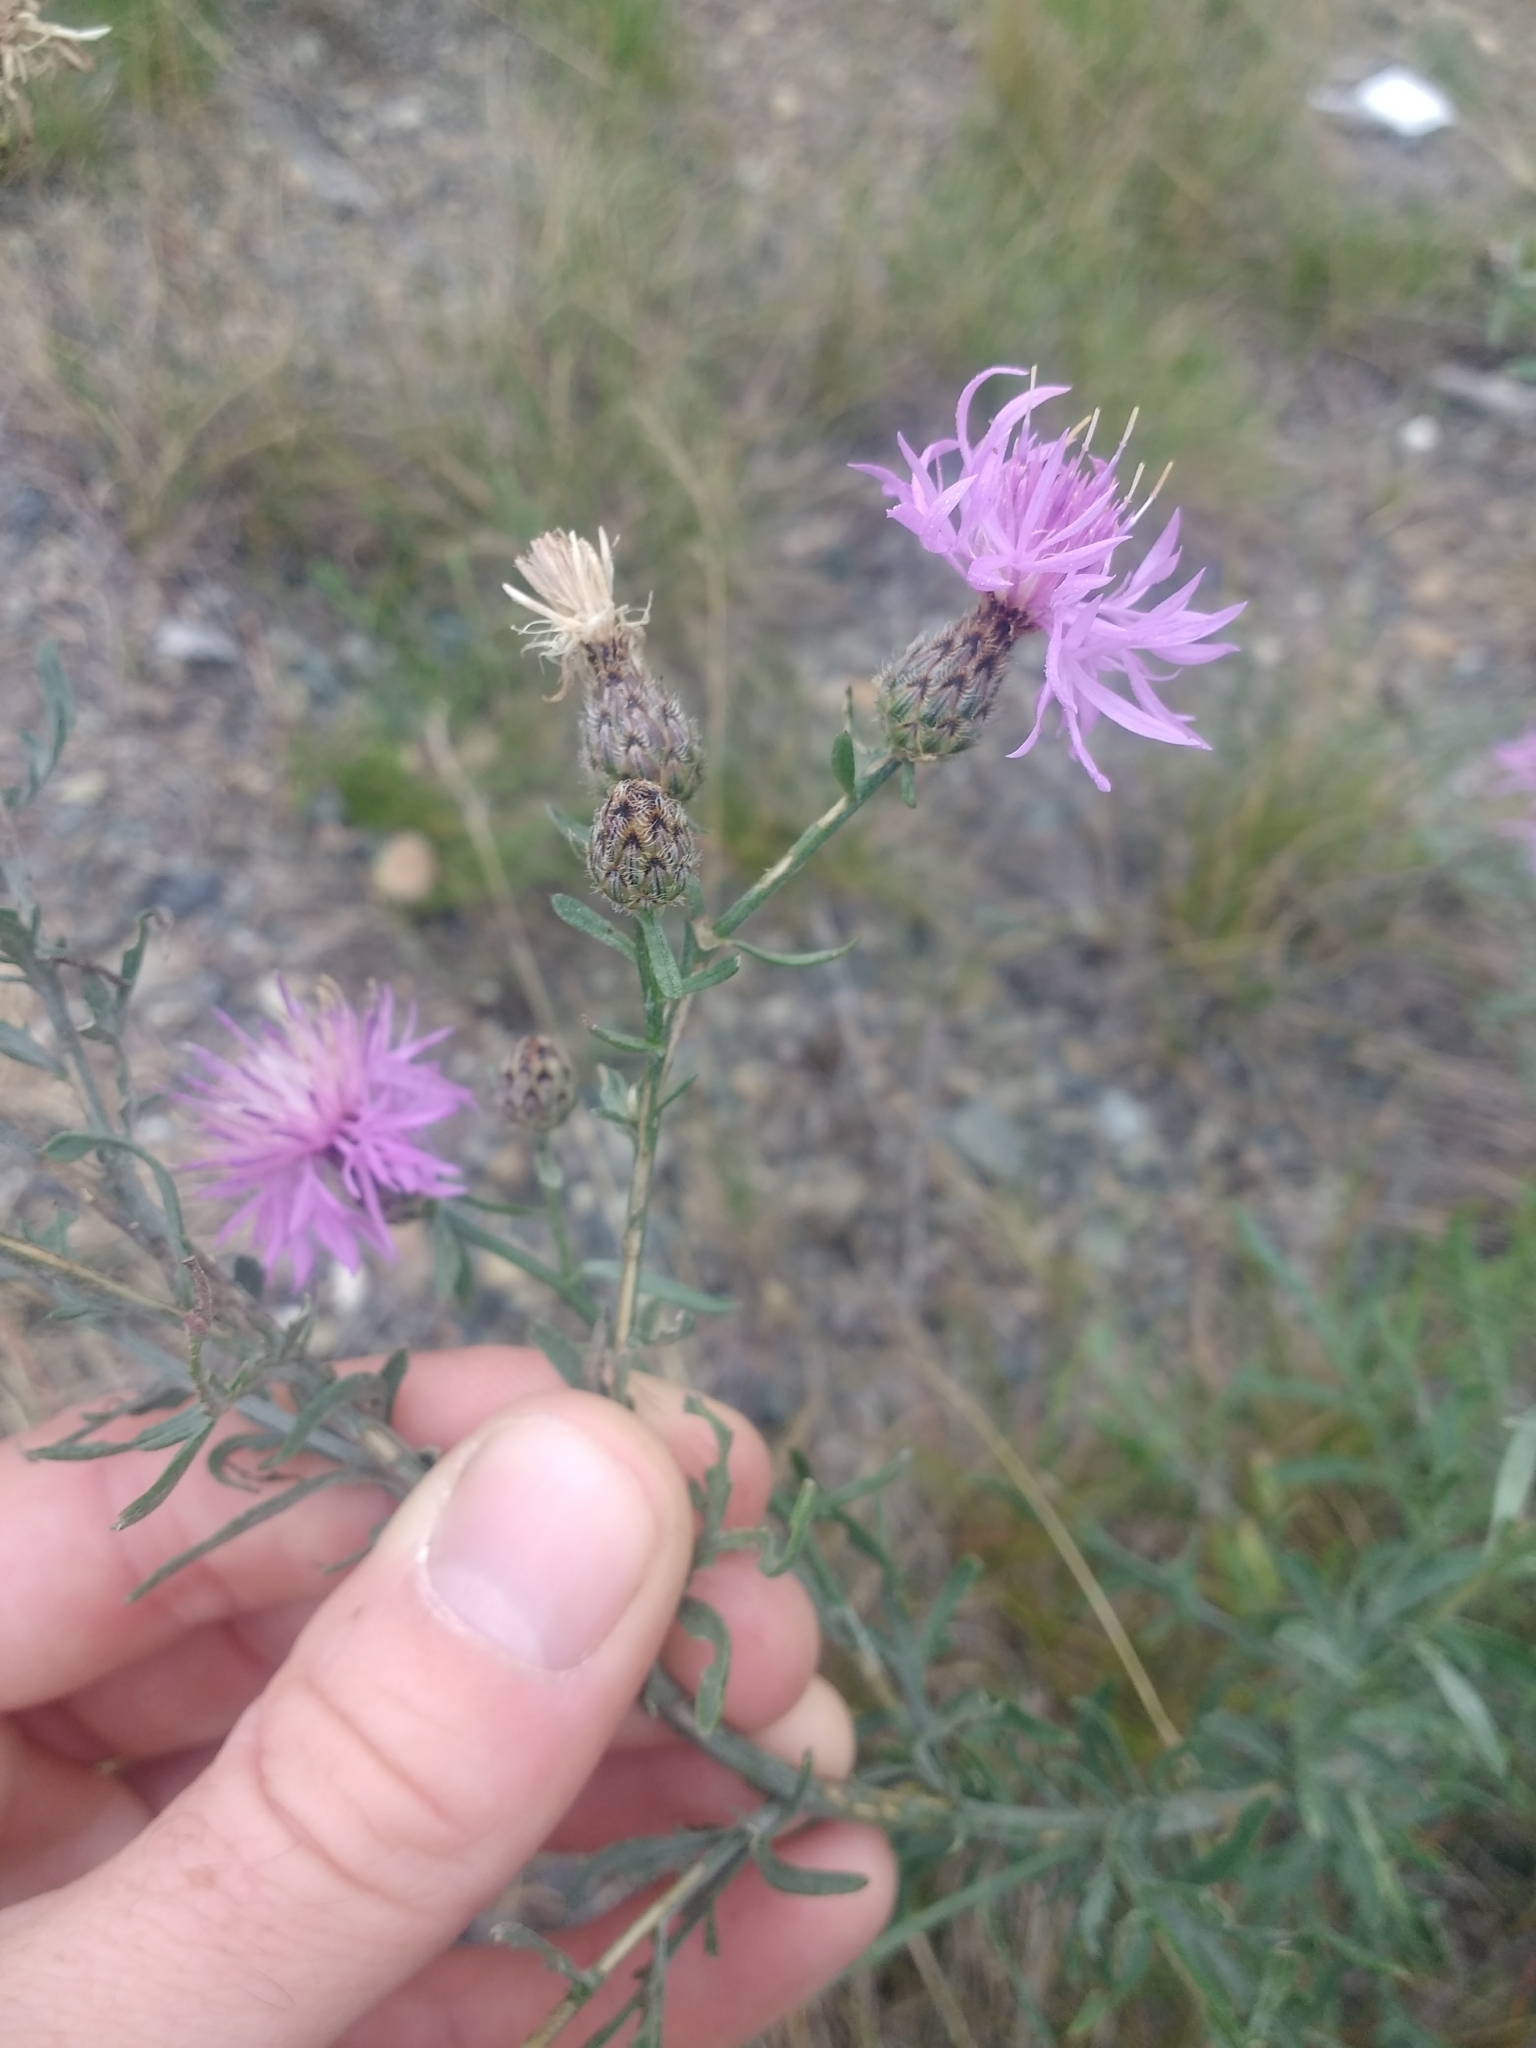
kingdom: Plantae
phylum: Tracheophyta
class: Magnoliopsida
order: Asterales
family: Asteraceae
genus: Centaurea
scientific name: Centaurea stoebe
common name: Spotted knapweed
